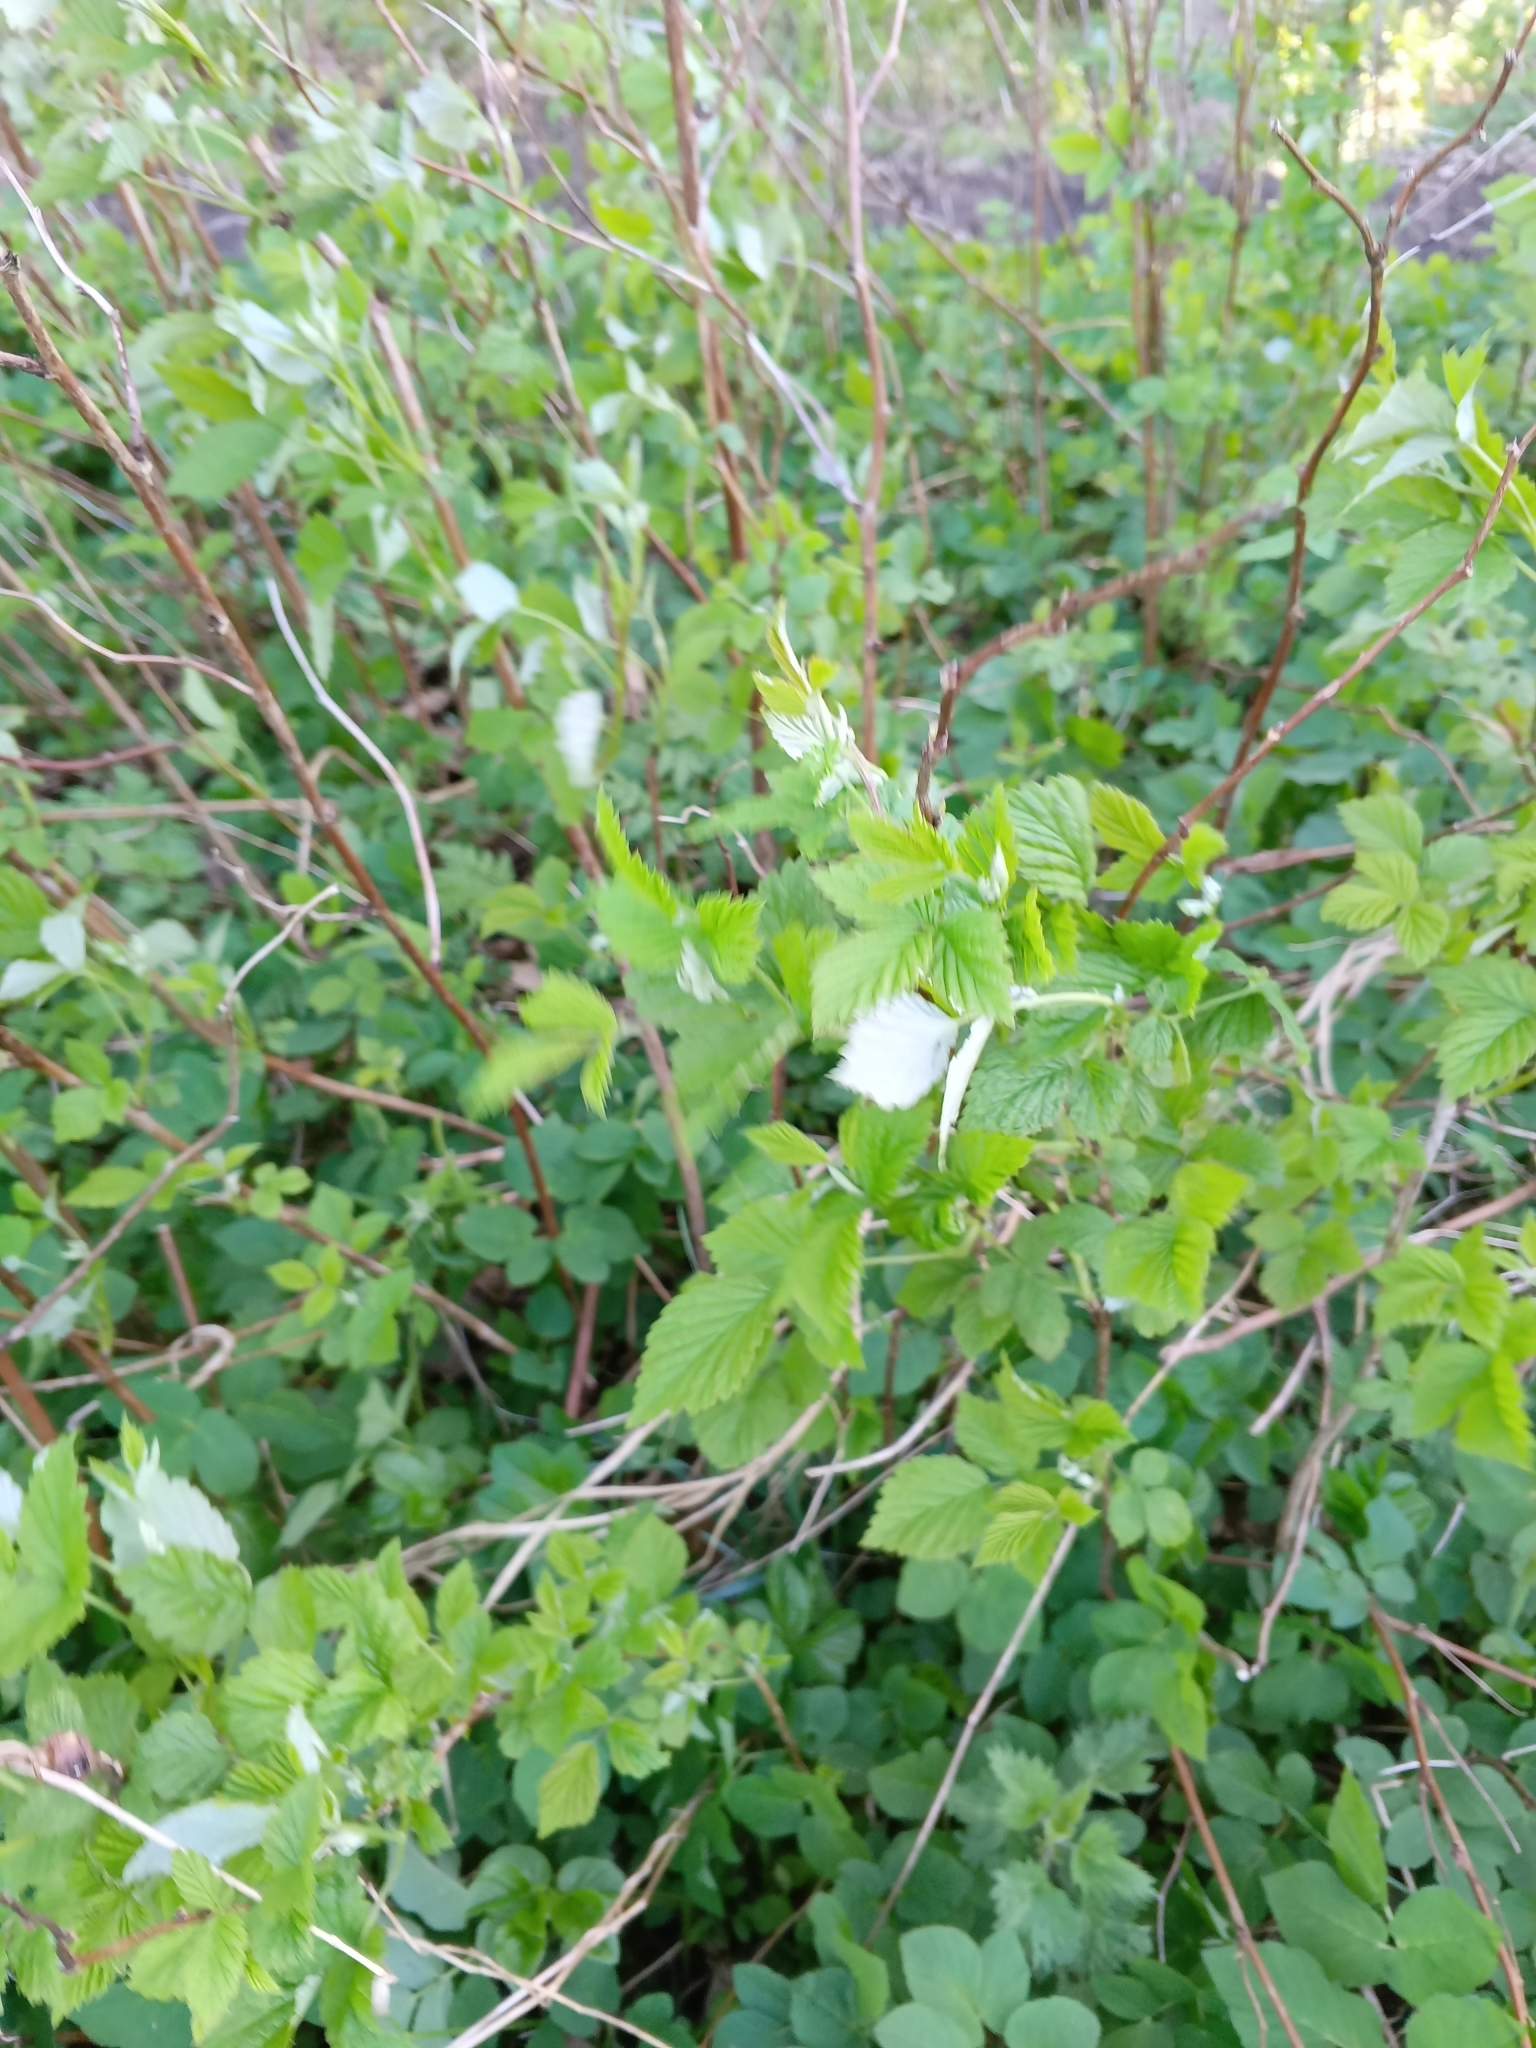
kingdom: Plantae
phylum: Tracheophyta
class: Magnoliopsida
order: Rosales
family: Rosaceae
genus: Rubus
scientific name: Rubus idaeus
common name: Raspberry
